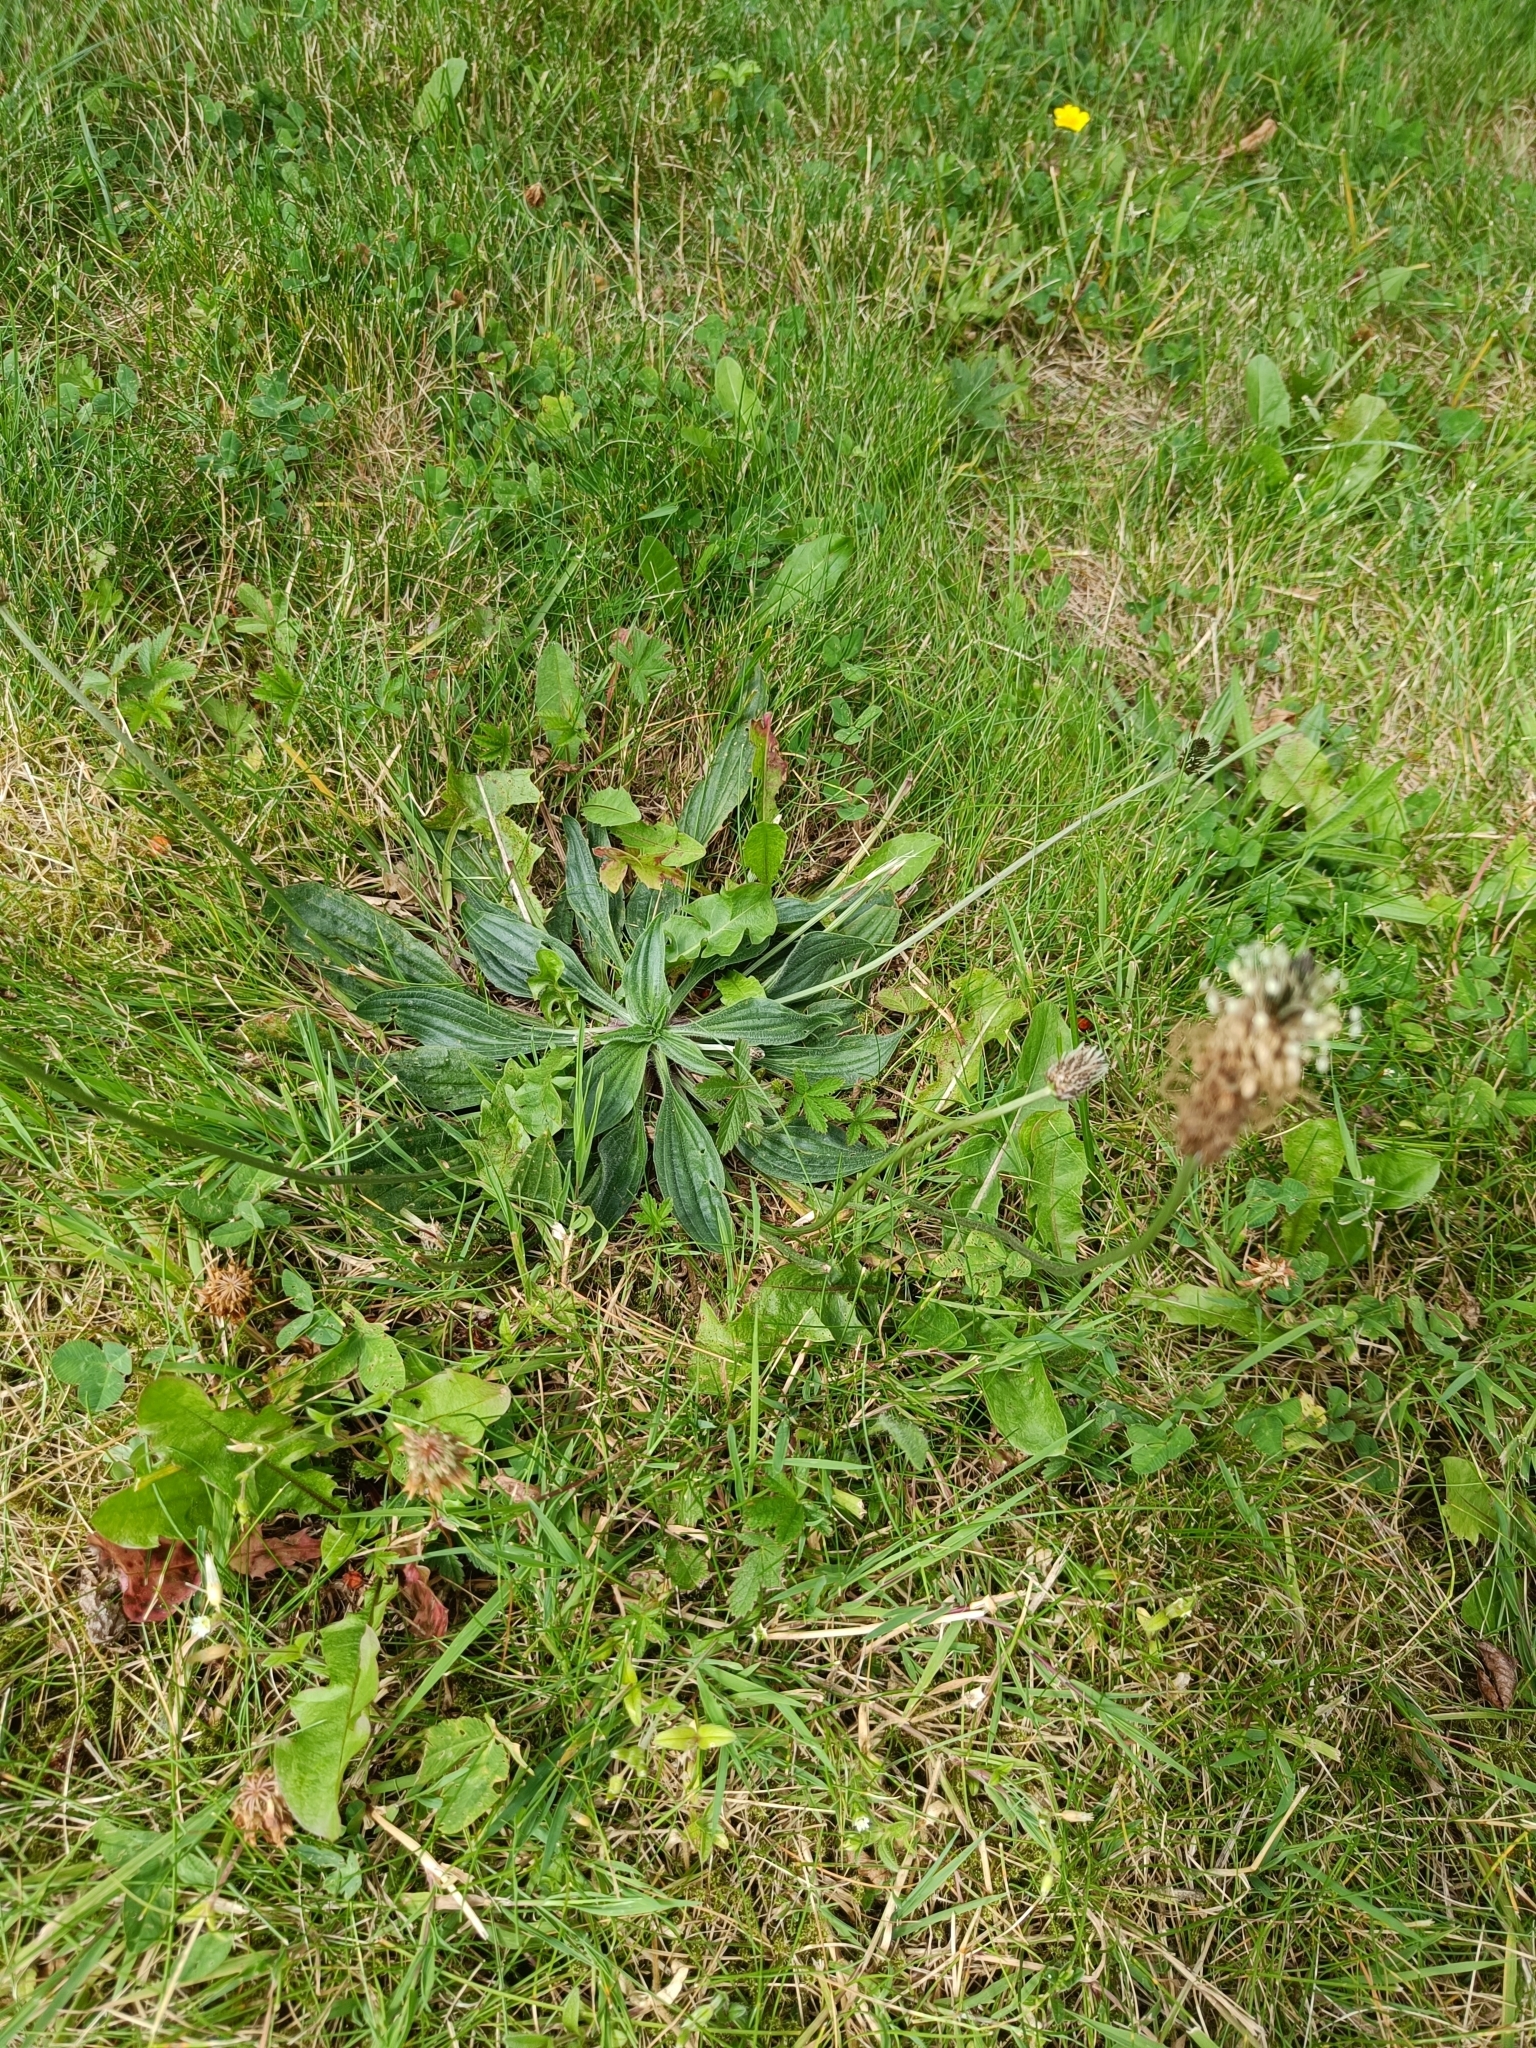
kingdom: Plantae
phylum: Tracheophyta
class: Magnoliopsida
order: Lamiales
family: Plantaginaceae
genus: Plantago
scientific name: Plantago lanceolata
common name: Ribwort plantain
